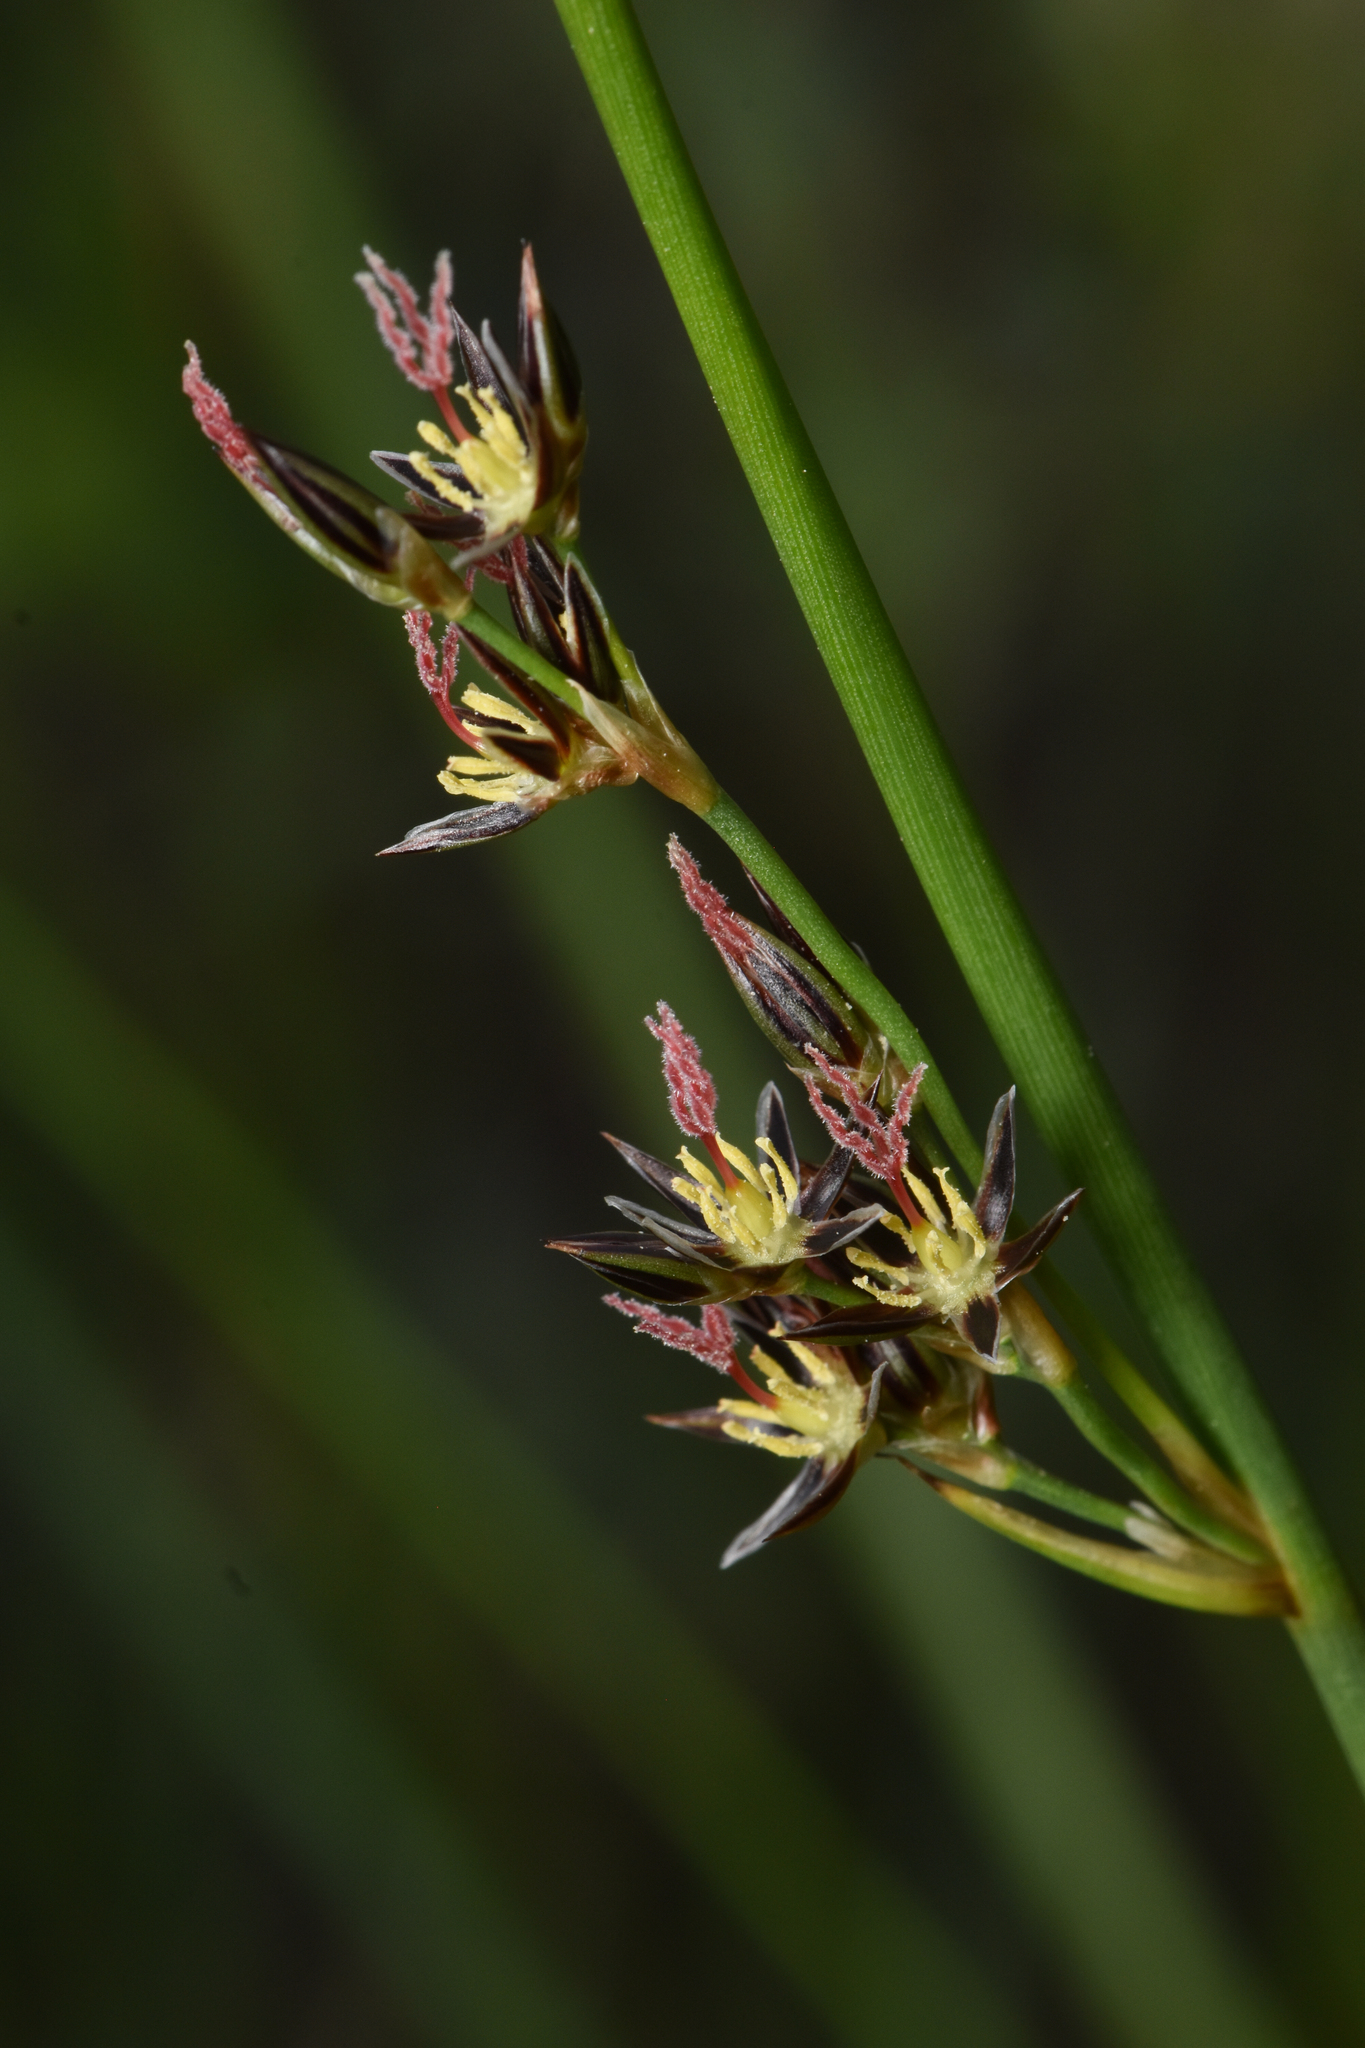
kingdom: Plantae
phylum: Tracheophyta
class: Liliopsida
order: Poales
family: Juncaceae
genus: Juncus
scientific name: Juncus balticus
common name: Baltic rush
